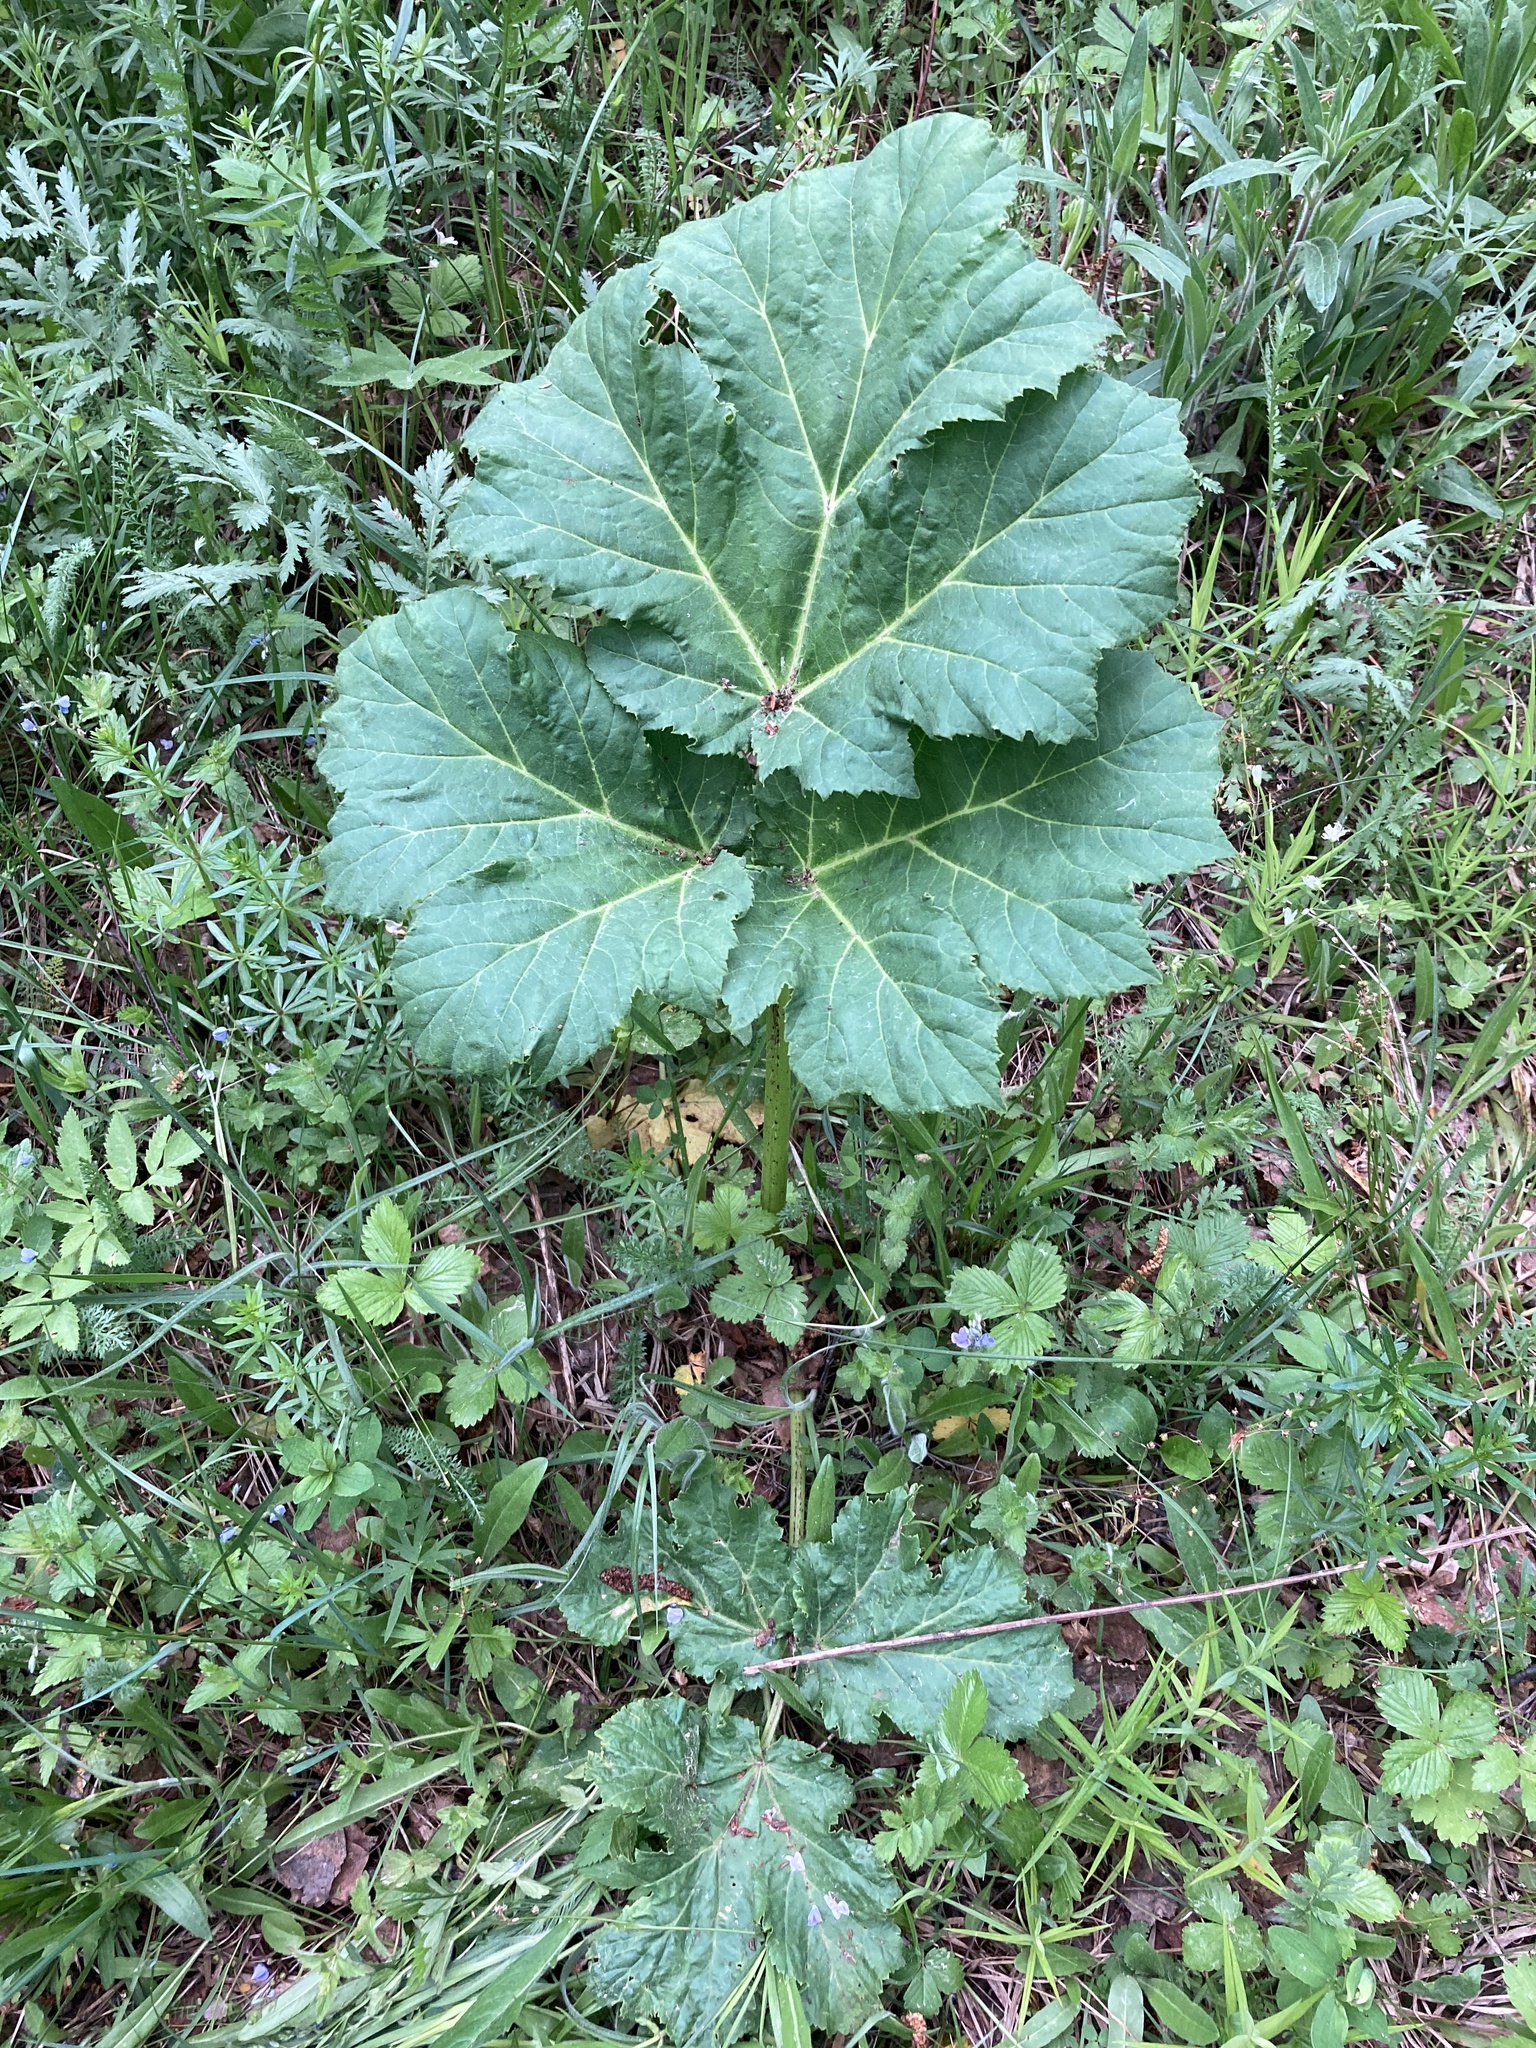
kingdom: Plantae
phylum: Tracheophyta
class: Magnoliopsida
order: Apiales
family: Apiaceae
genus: Heracleum
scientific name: Heracleum sosnowskyi
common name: Sosnowsky's hogweed
